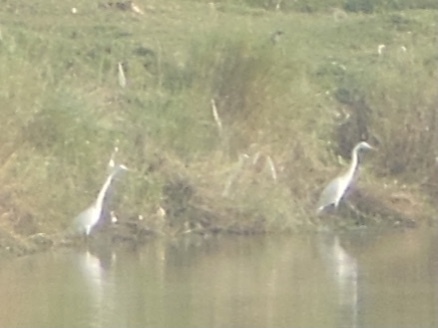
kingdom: Animalia
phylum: Chordata
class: Aves
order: Pelecaniformes
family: Ardeidae
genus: Ardea
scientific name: Ardea alba
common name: Great egret
